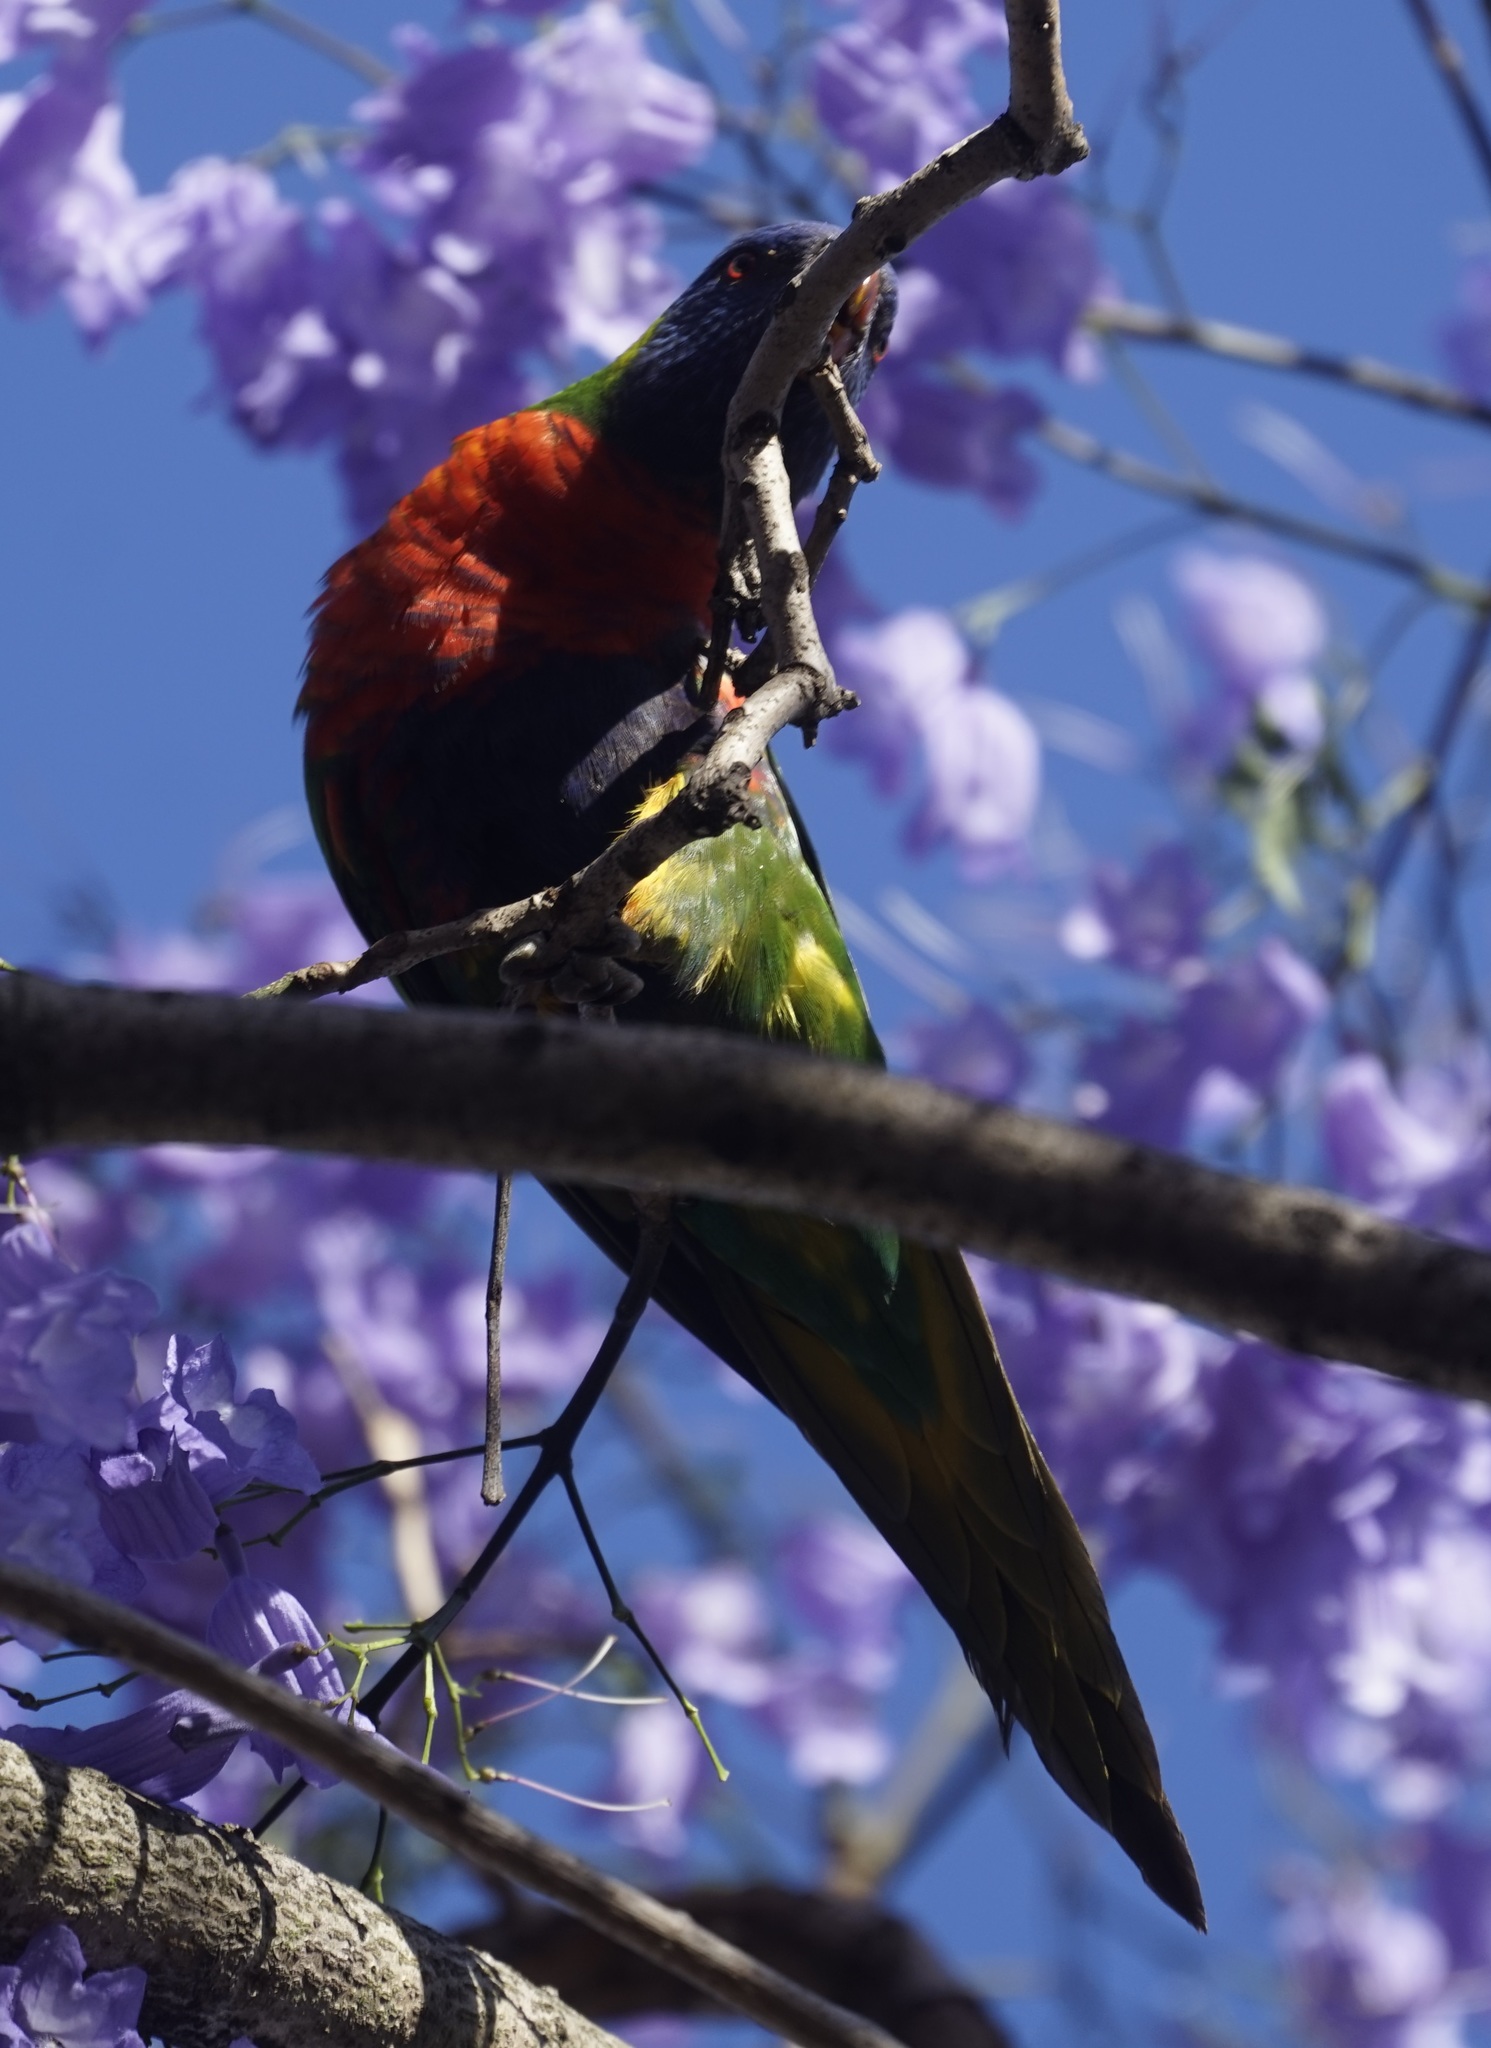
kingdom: Animalia
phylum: Chordata
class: Aves
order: Psittaciformes
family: Psittacidae
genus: Trichoglossus
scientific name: Trichoglossus haematodus
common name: Coconut lorikeet
